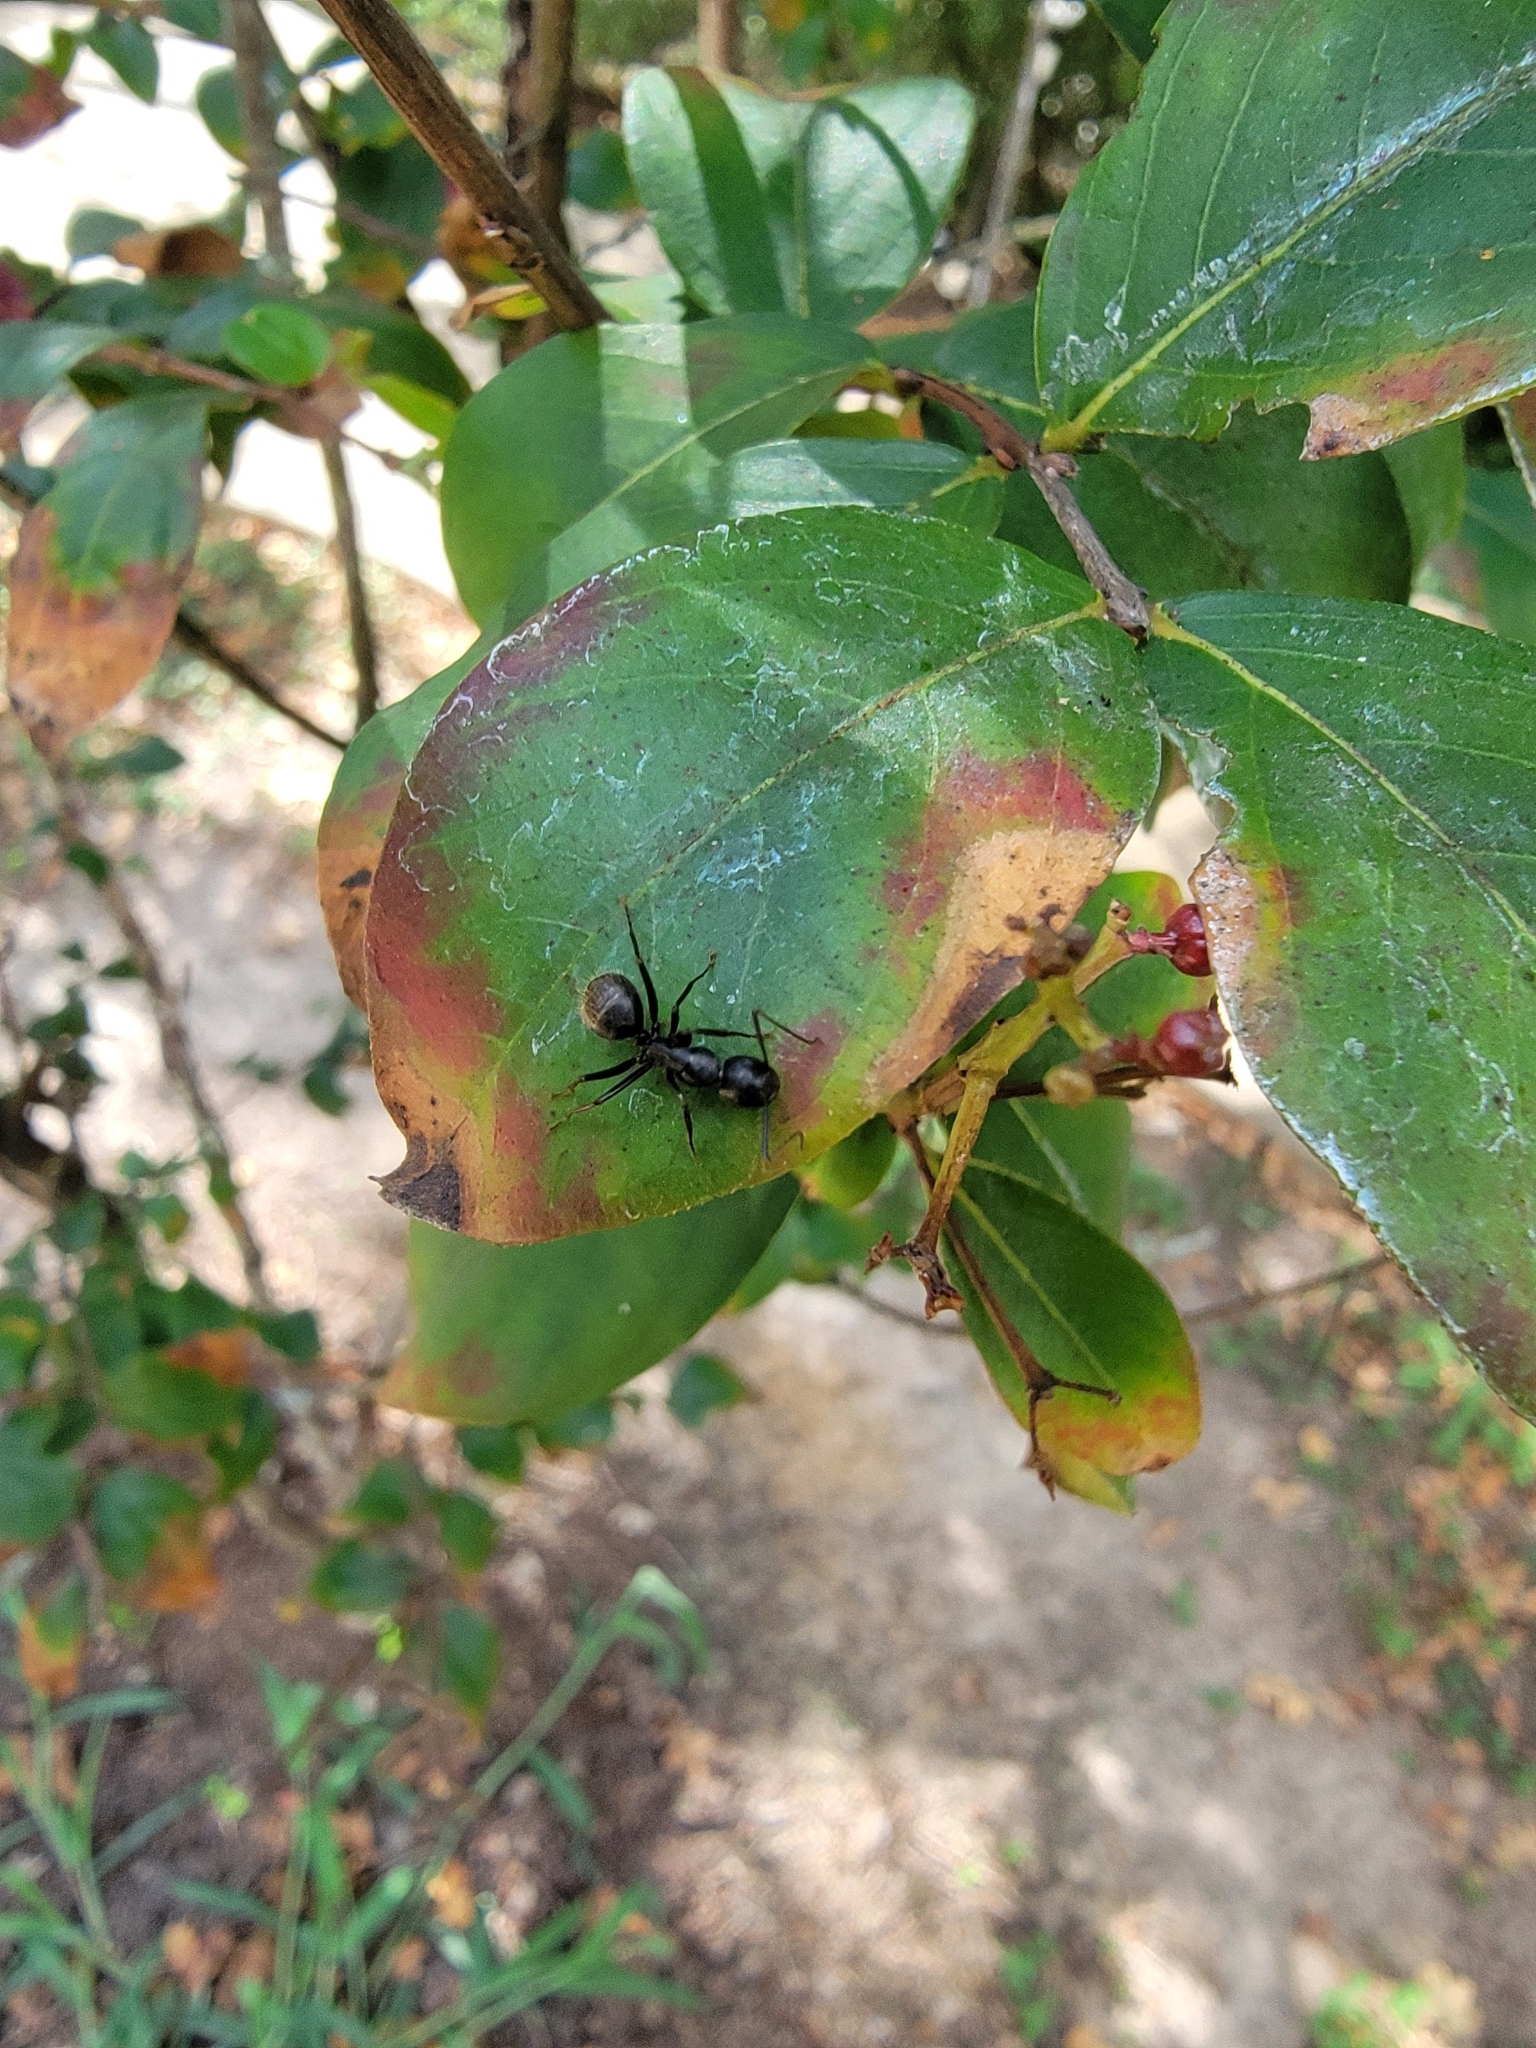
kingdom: Animalia
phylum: Arthropoda
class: Insecta
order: Hymenoptera
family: Formicidae
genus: Camponotus
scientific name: Camponotus pennsylvanicus
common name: Black carpenter ant
